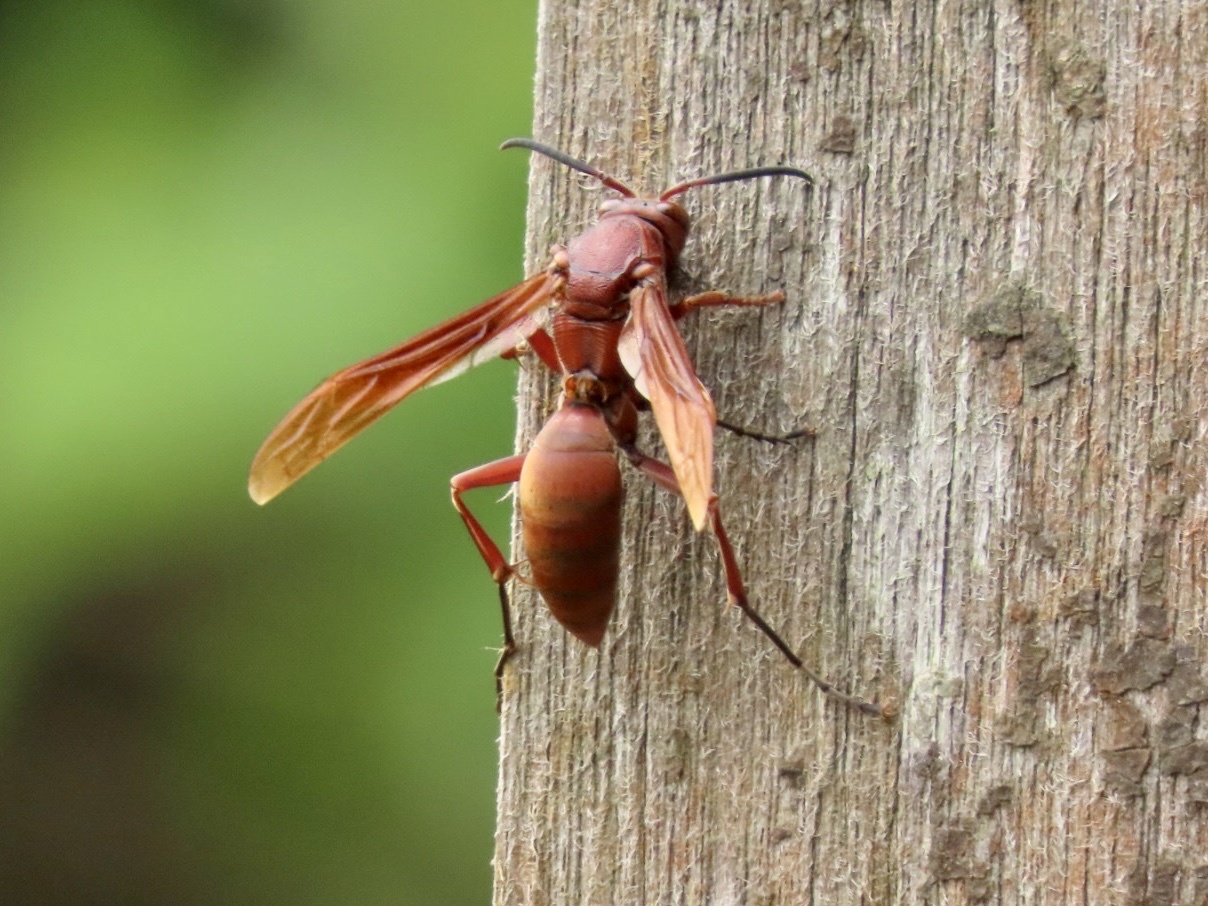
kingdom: Animalia
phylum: Arthropoda
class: Insecta
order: Hymenoptera
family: Eumenidae
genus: Polistes
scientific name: Polistes strigosus
